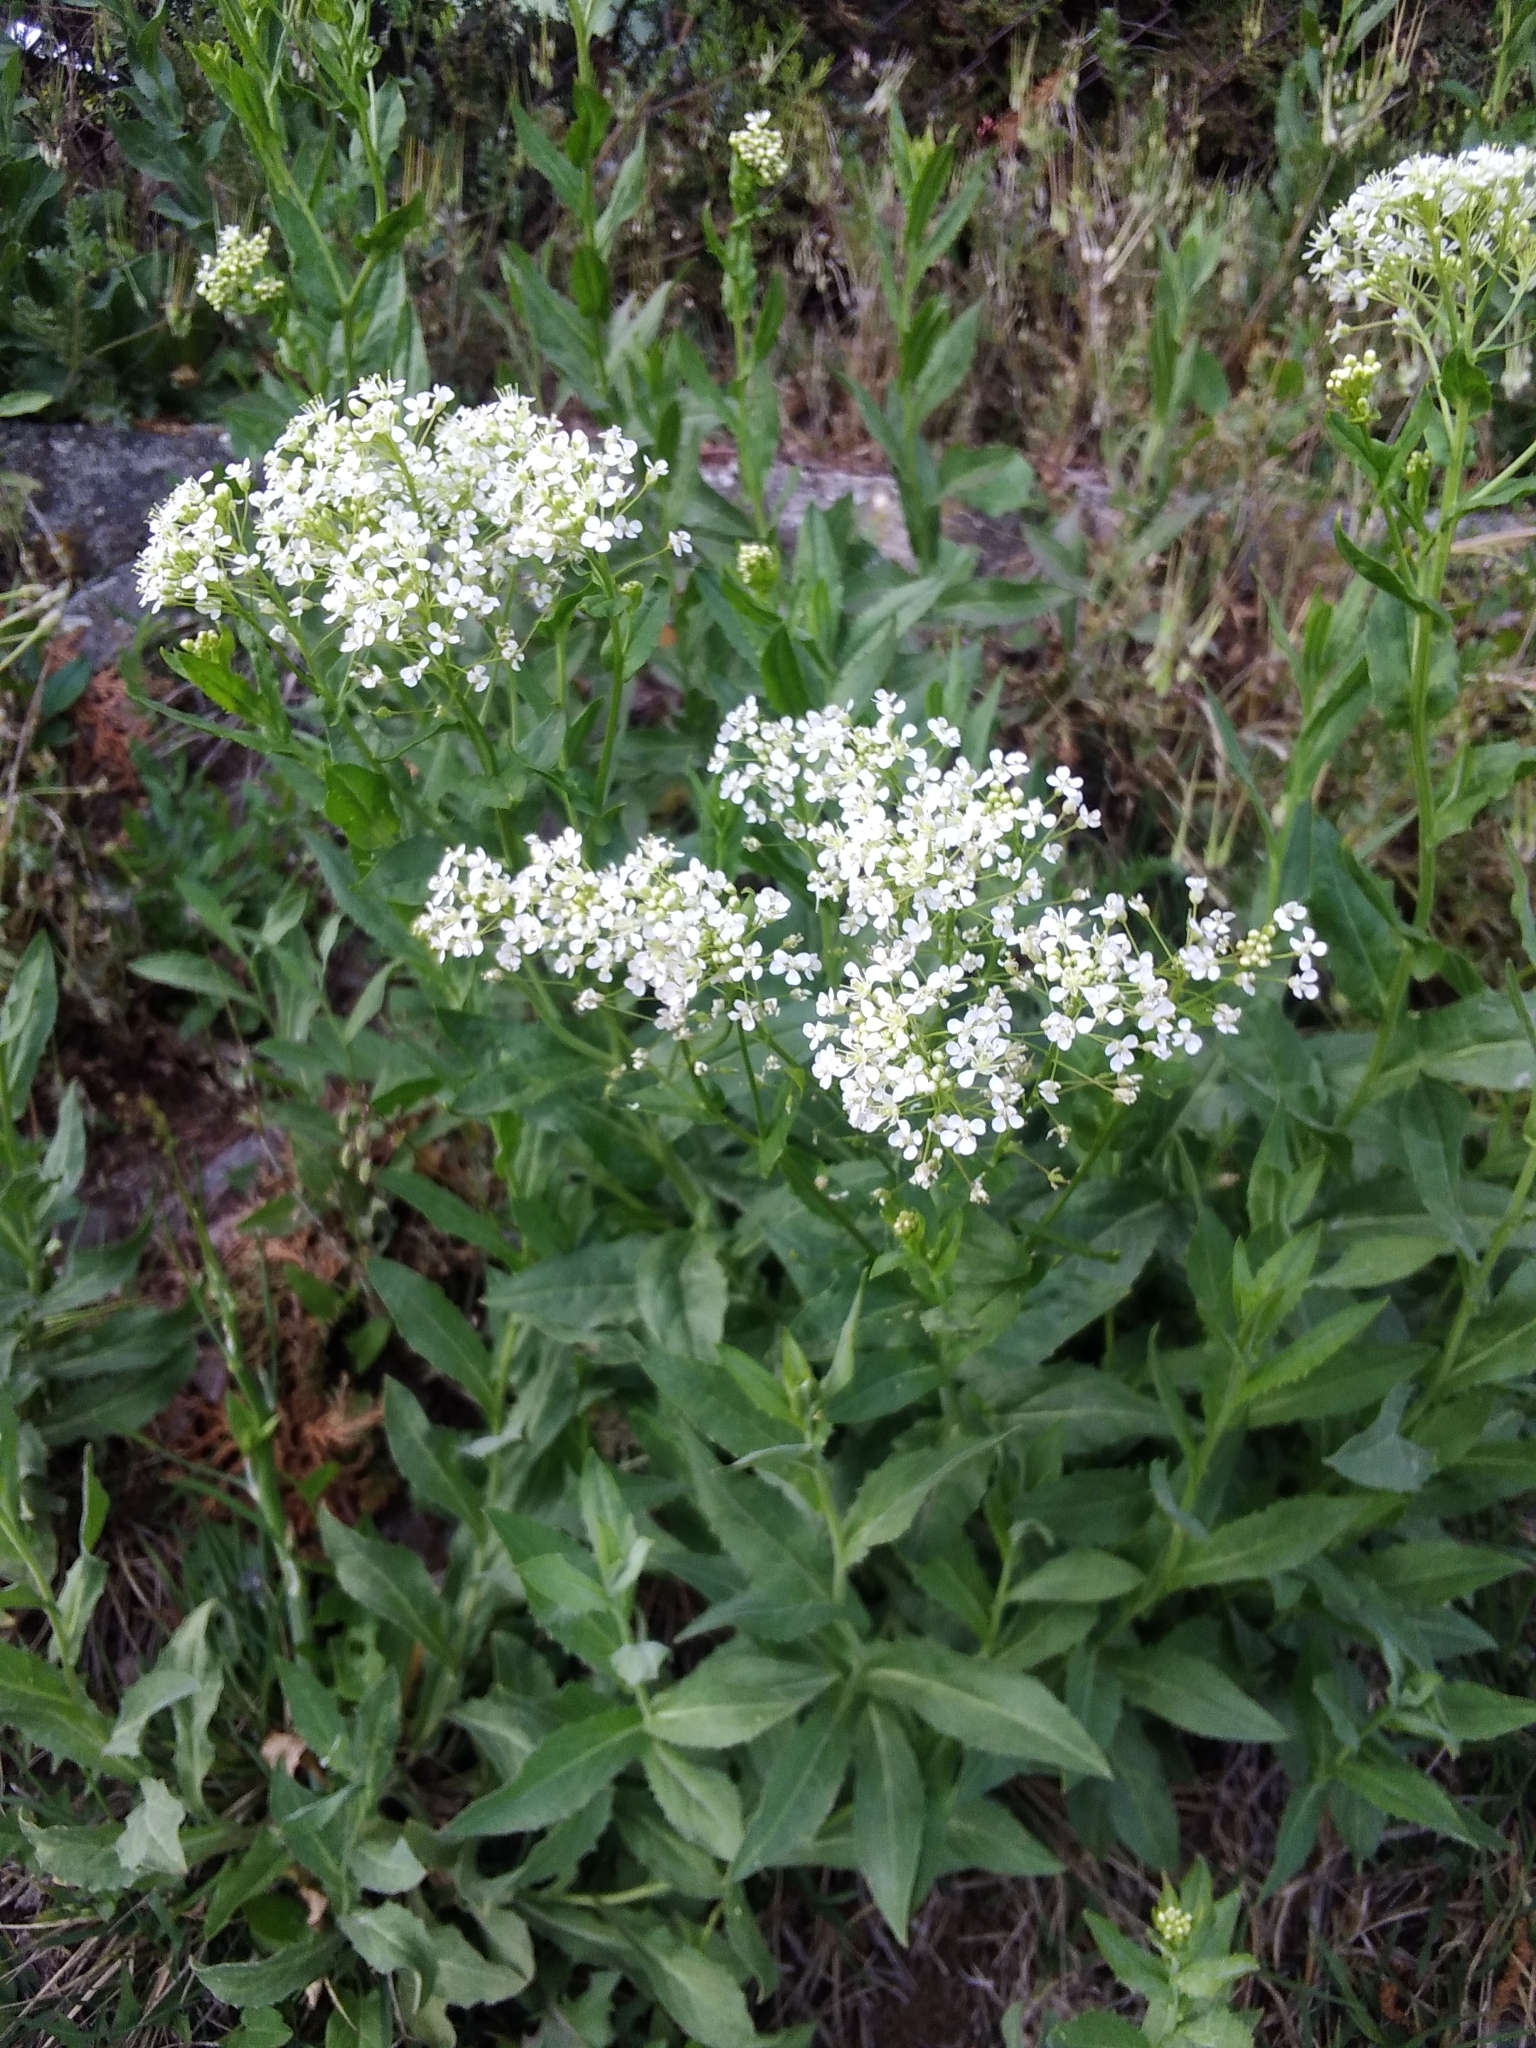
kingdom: Plantae
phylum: Tracheophyta
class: Magnoliopsida
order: Brassicales
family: Brassicaceae
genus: Lepidium
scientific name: Lepidium draba
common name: Hoary cress
